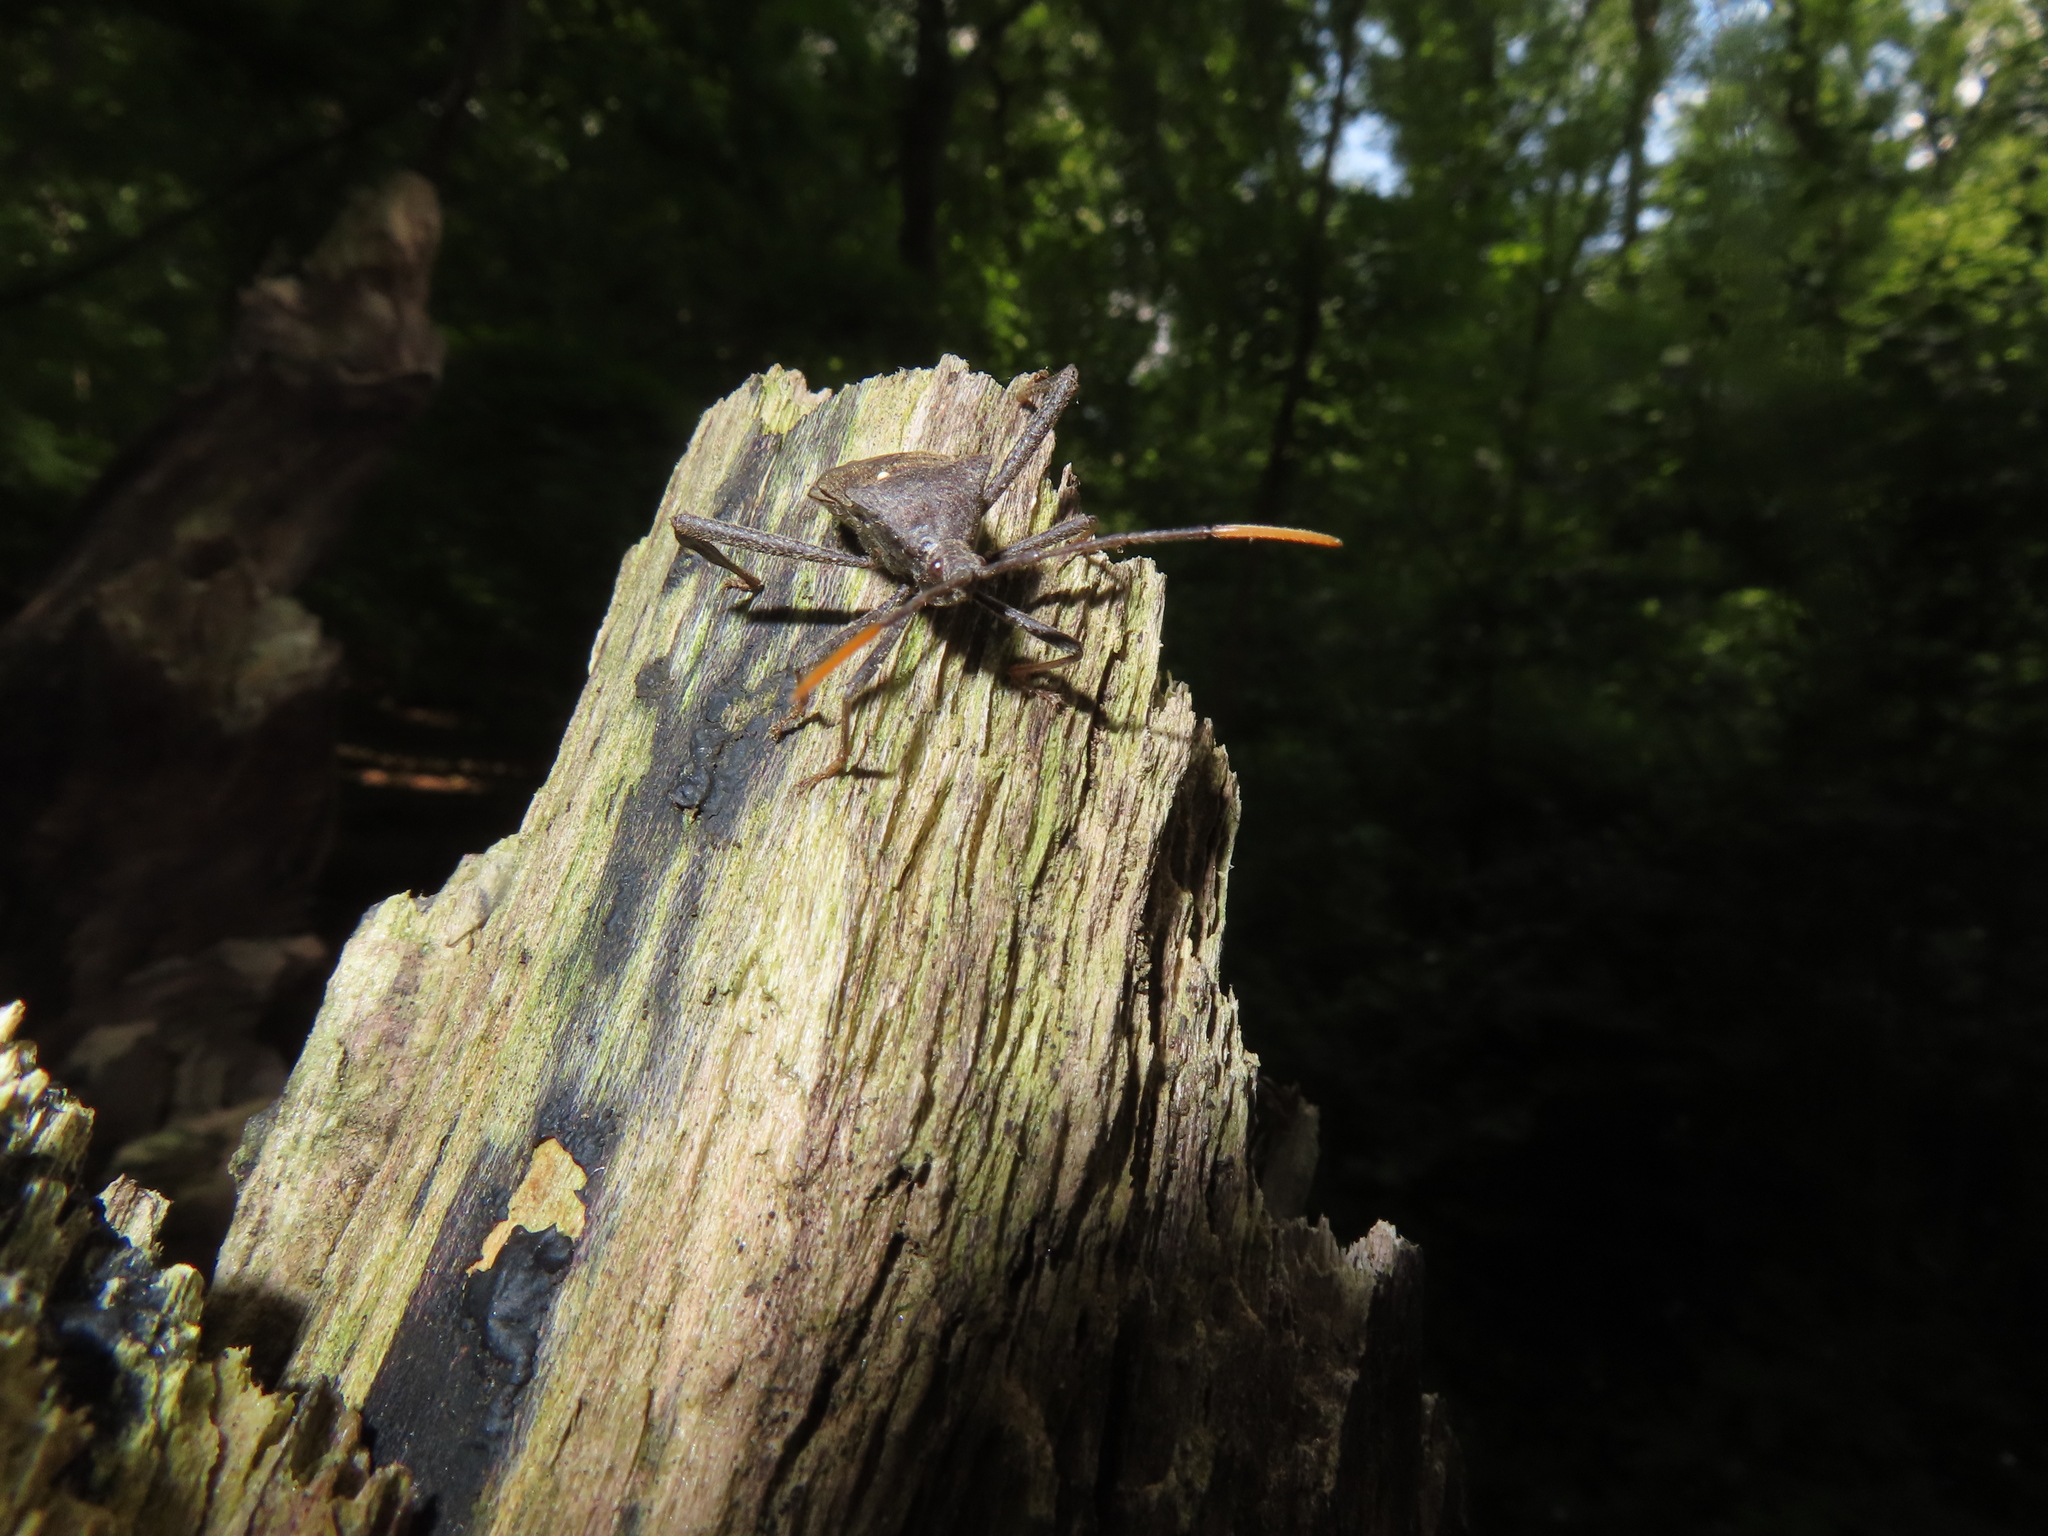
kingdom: Animalia
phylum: Arthropoda
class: Insecta
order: Hemiptera
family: Coreidae
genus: Acanthocephala
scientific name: Acanthocephala terminalis
